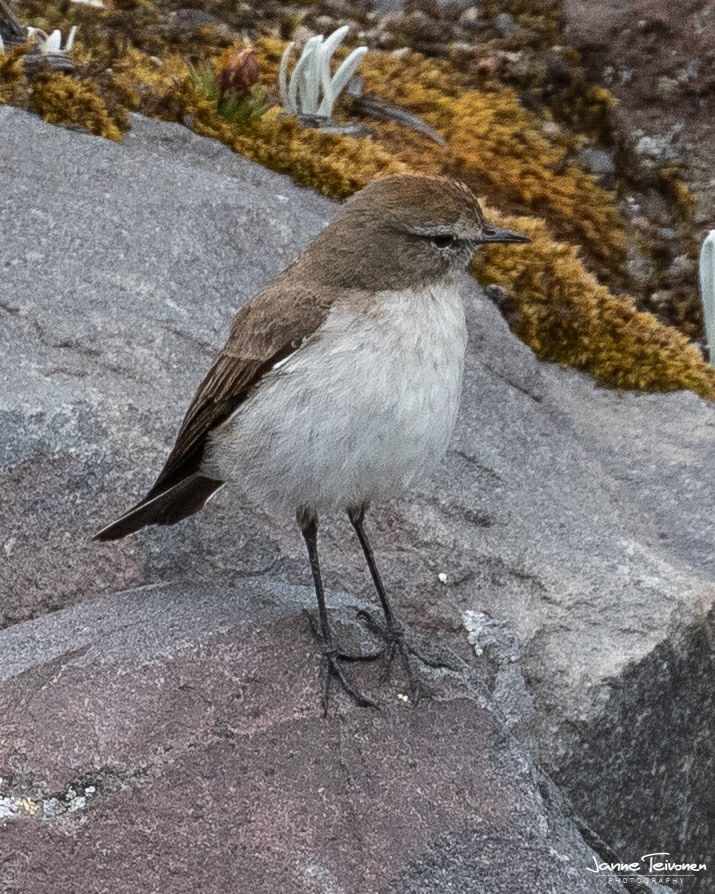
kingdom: Animalia
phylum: Chordata
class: Aves
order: Passeriformes
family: Tyrannidae
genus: Muscisaxicola
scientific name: Muscisaxicola alpinus
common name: Paramo ground tyrant
